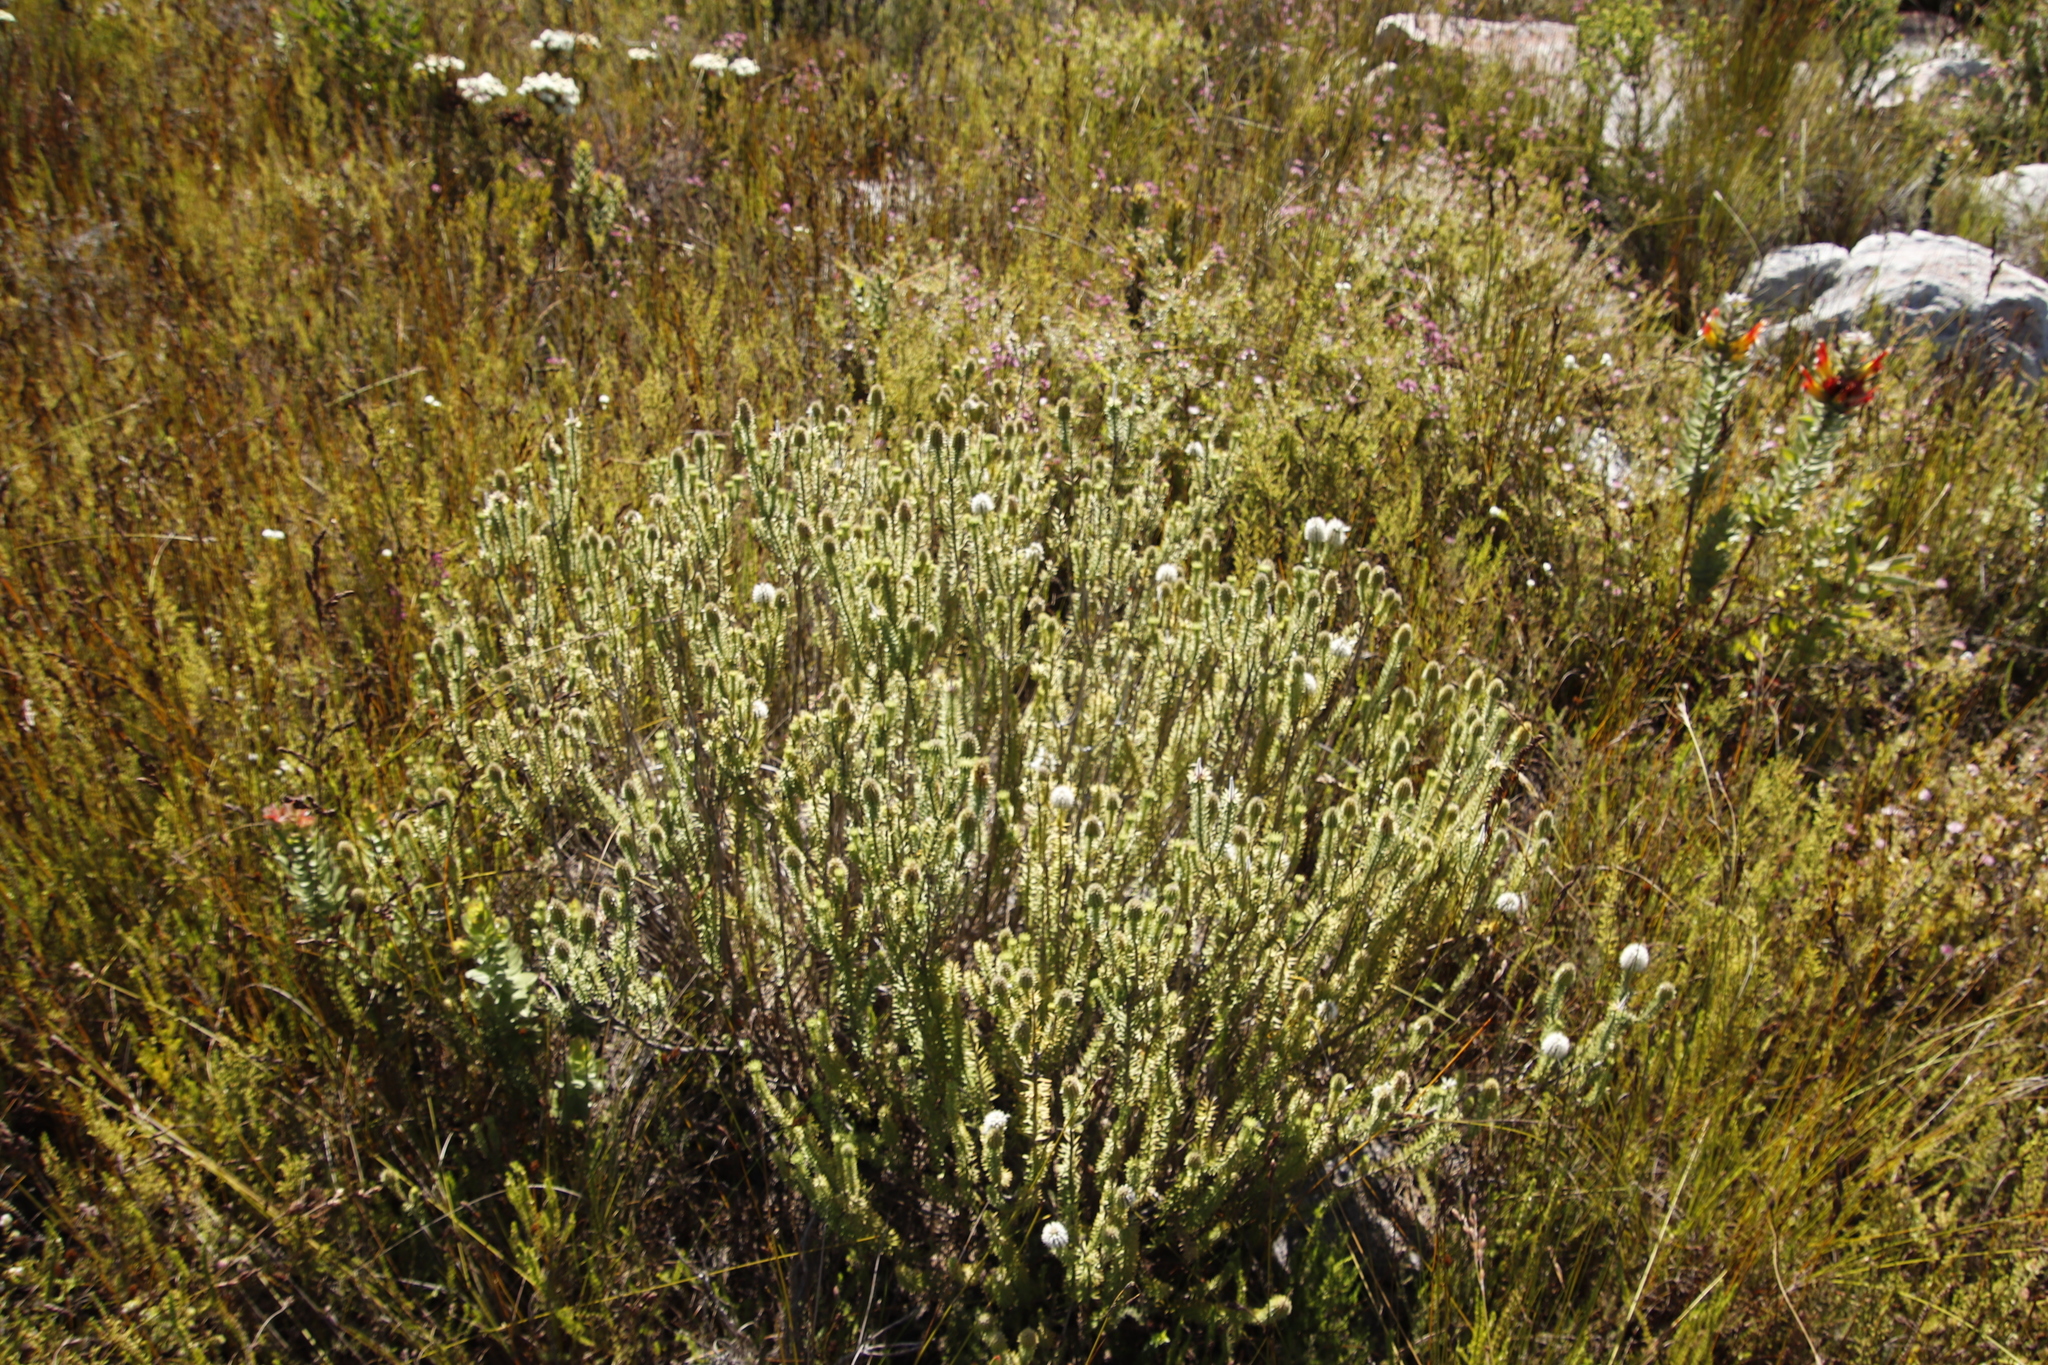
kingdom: Plantae
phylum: Tracheophyta
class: Magnoliopsida
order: Lamiales
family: Stilbaceae
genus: Stilbe
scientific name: Stilbe vestita
